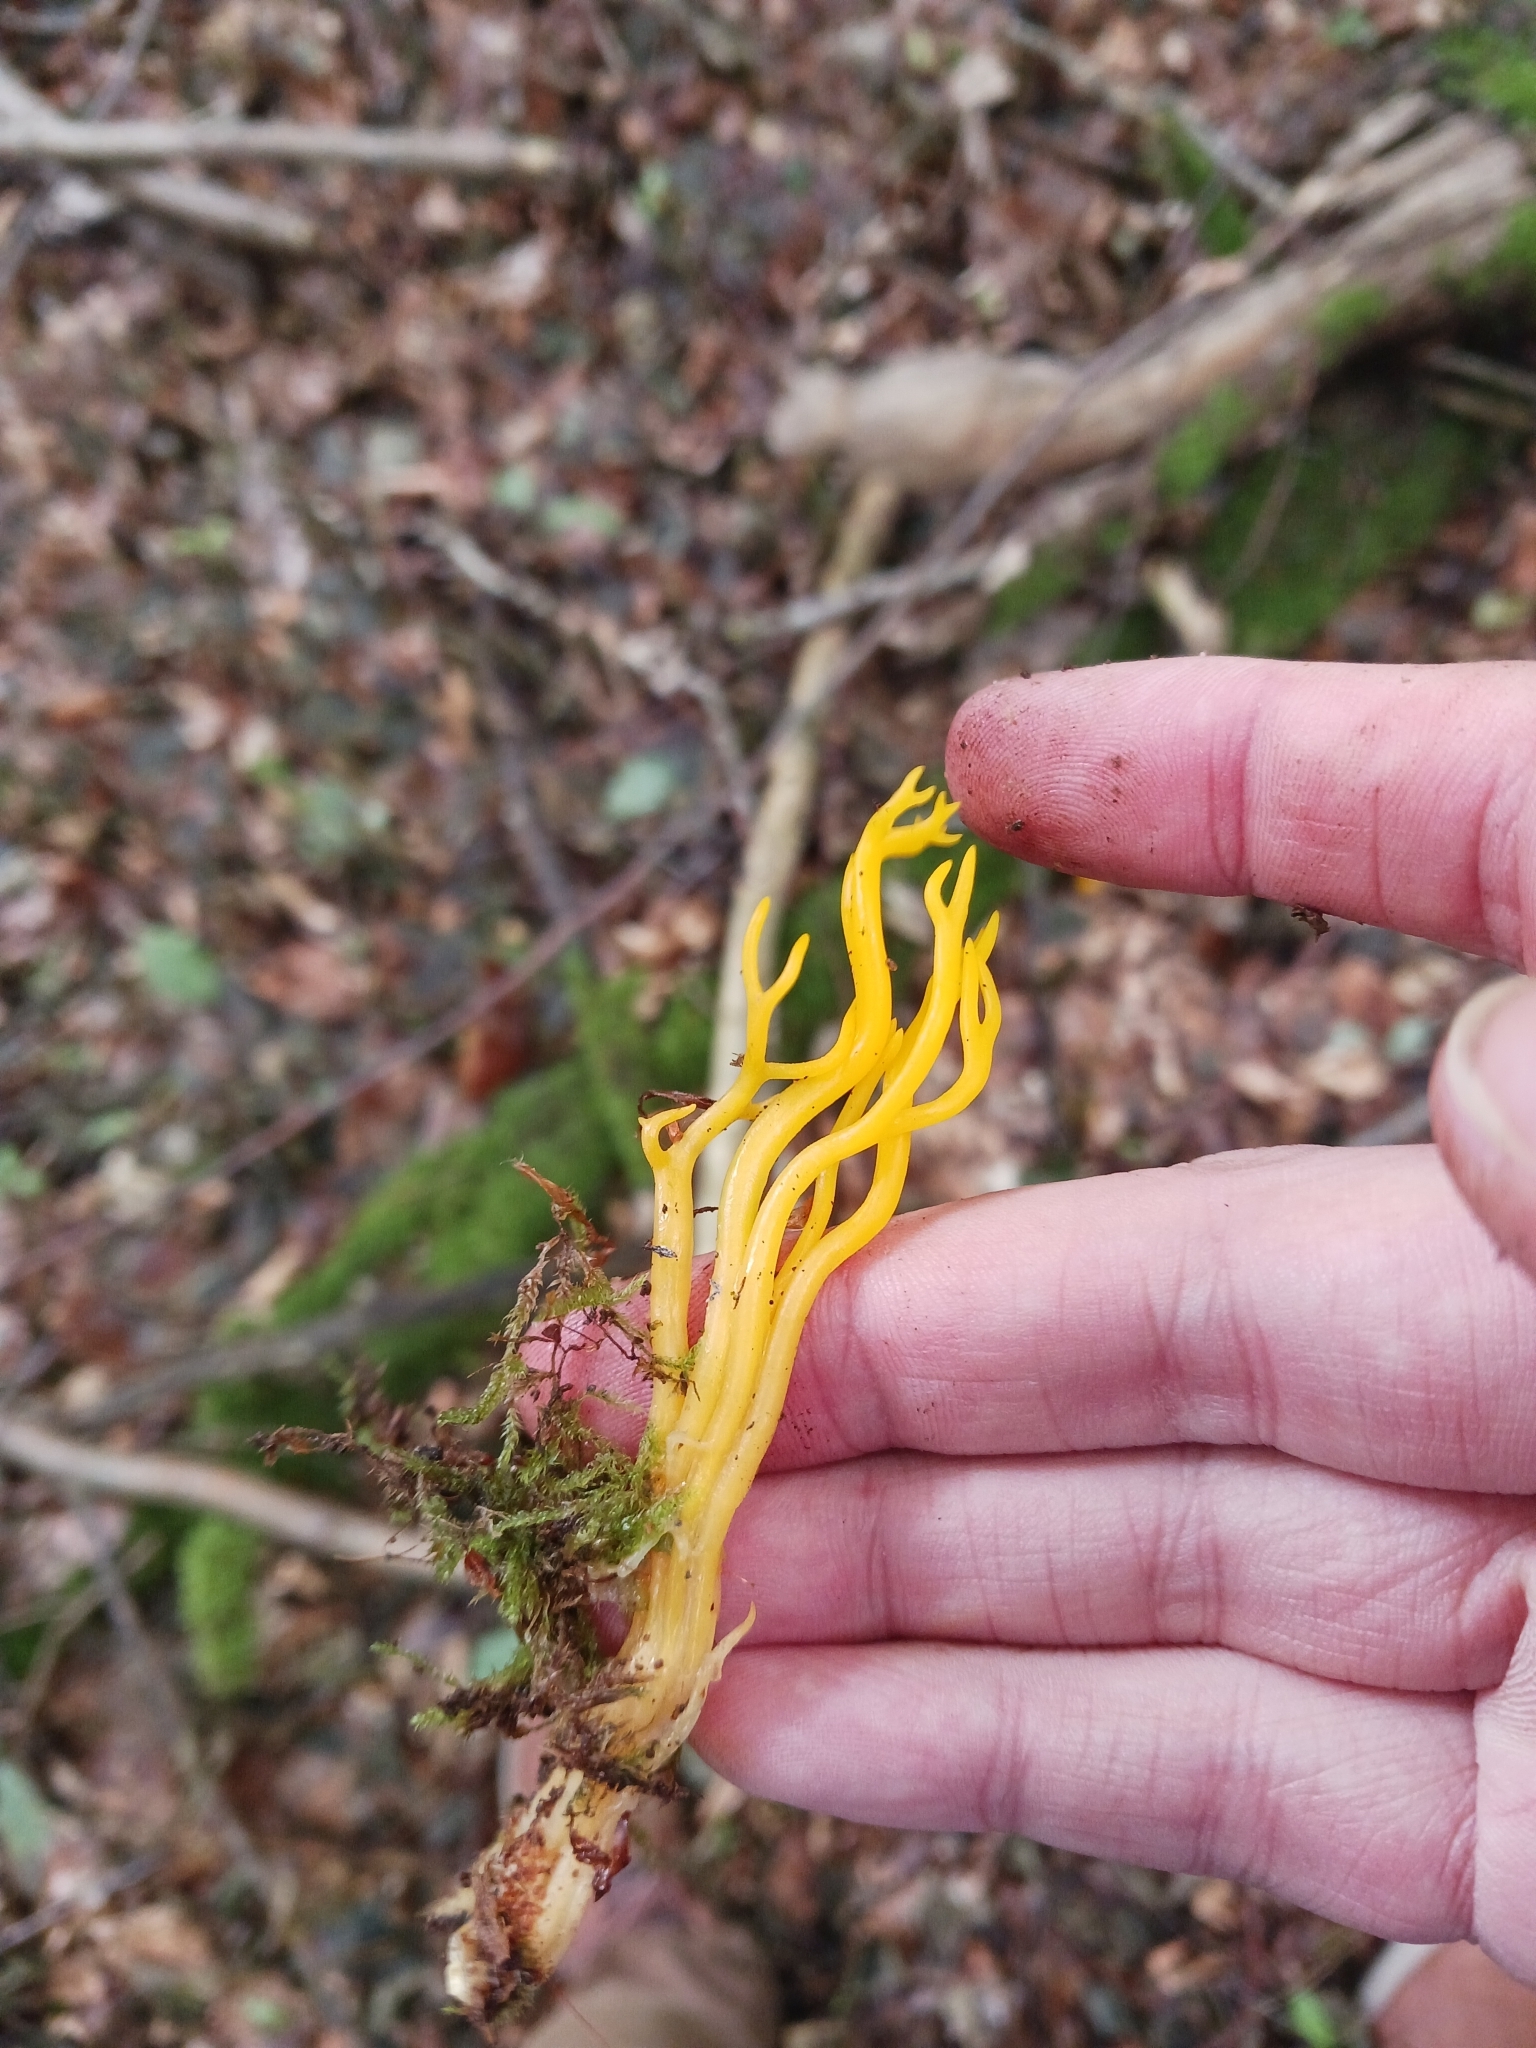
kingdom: Fungi
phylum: Basidiomycota
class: Dacrymycetes
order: Dacrymycetales
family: Dacrymycetaceae
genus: Calocera
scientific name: Calocera viscosa
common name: Yellow stagshorn
